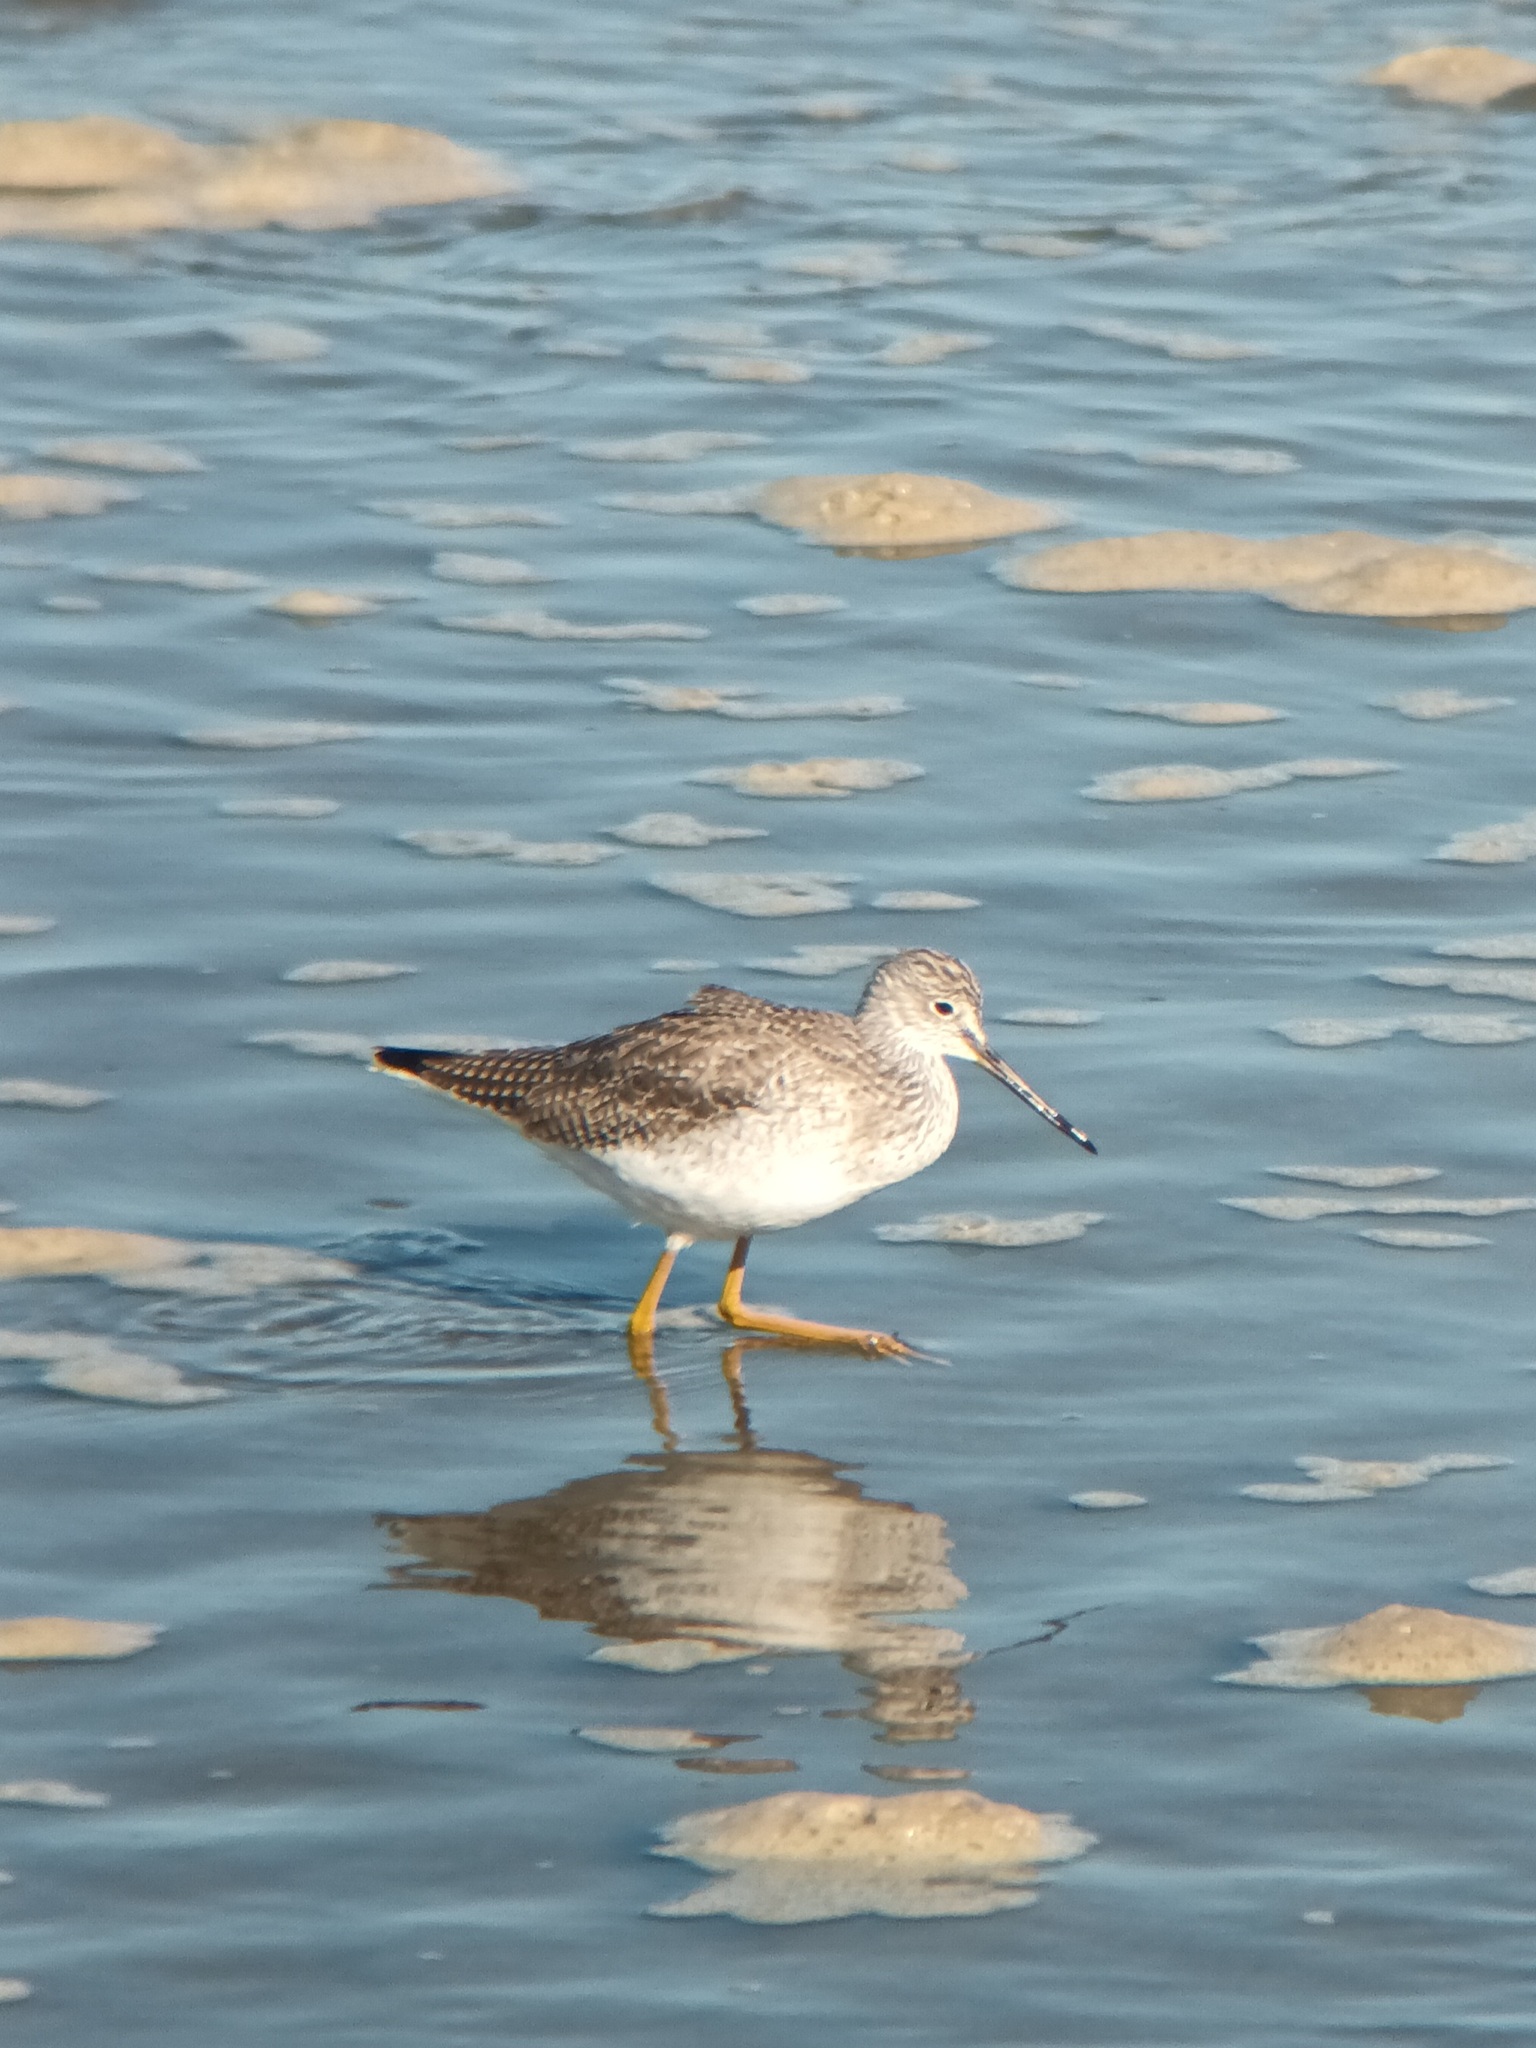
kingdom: Animalia
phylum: Chordata
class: Aves
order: Charadriiformes
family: Scolopacidae
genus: Tringa
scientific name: Tringa melanoleuca
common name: Greater yellowlegs
